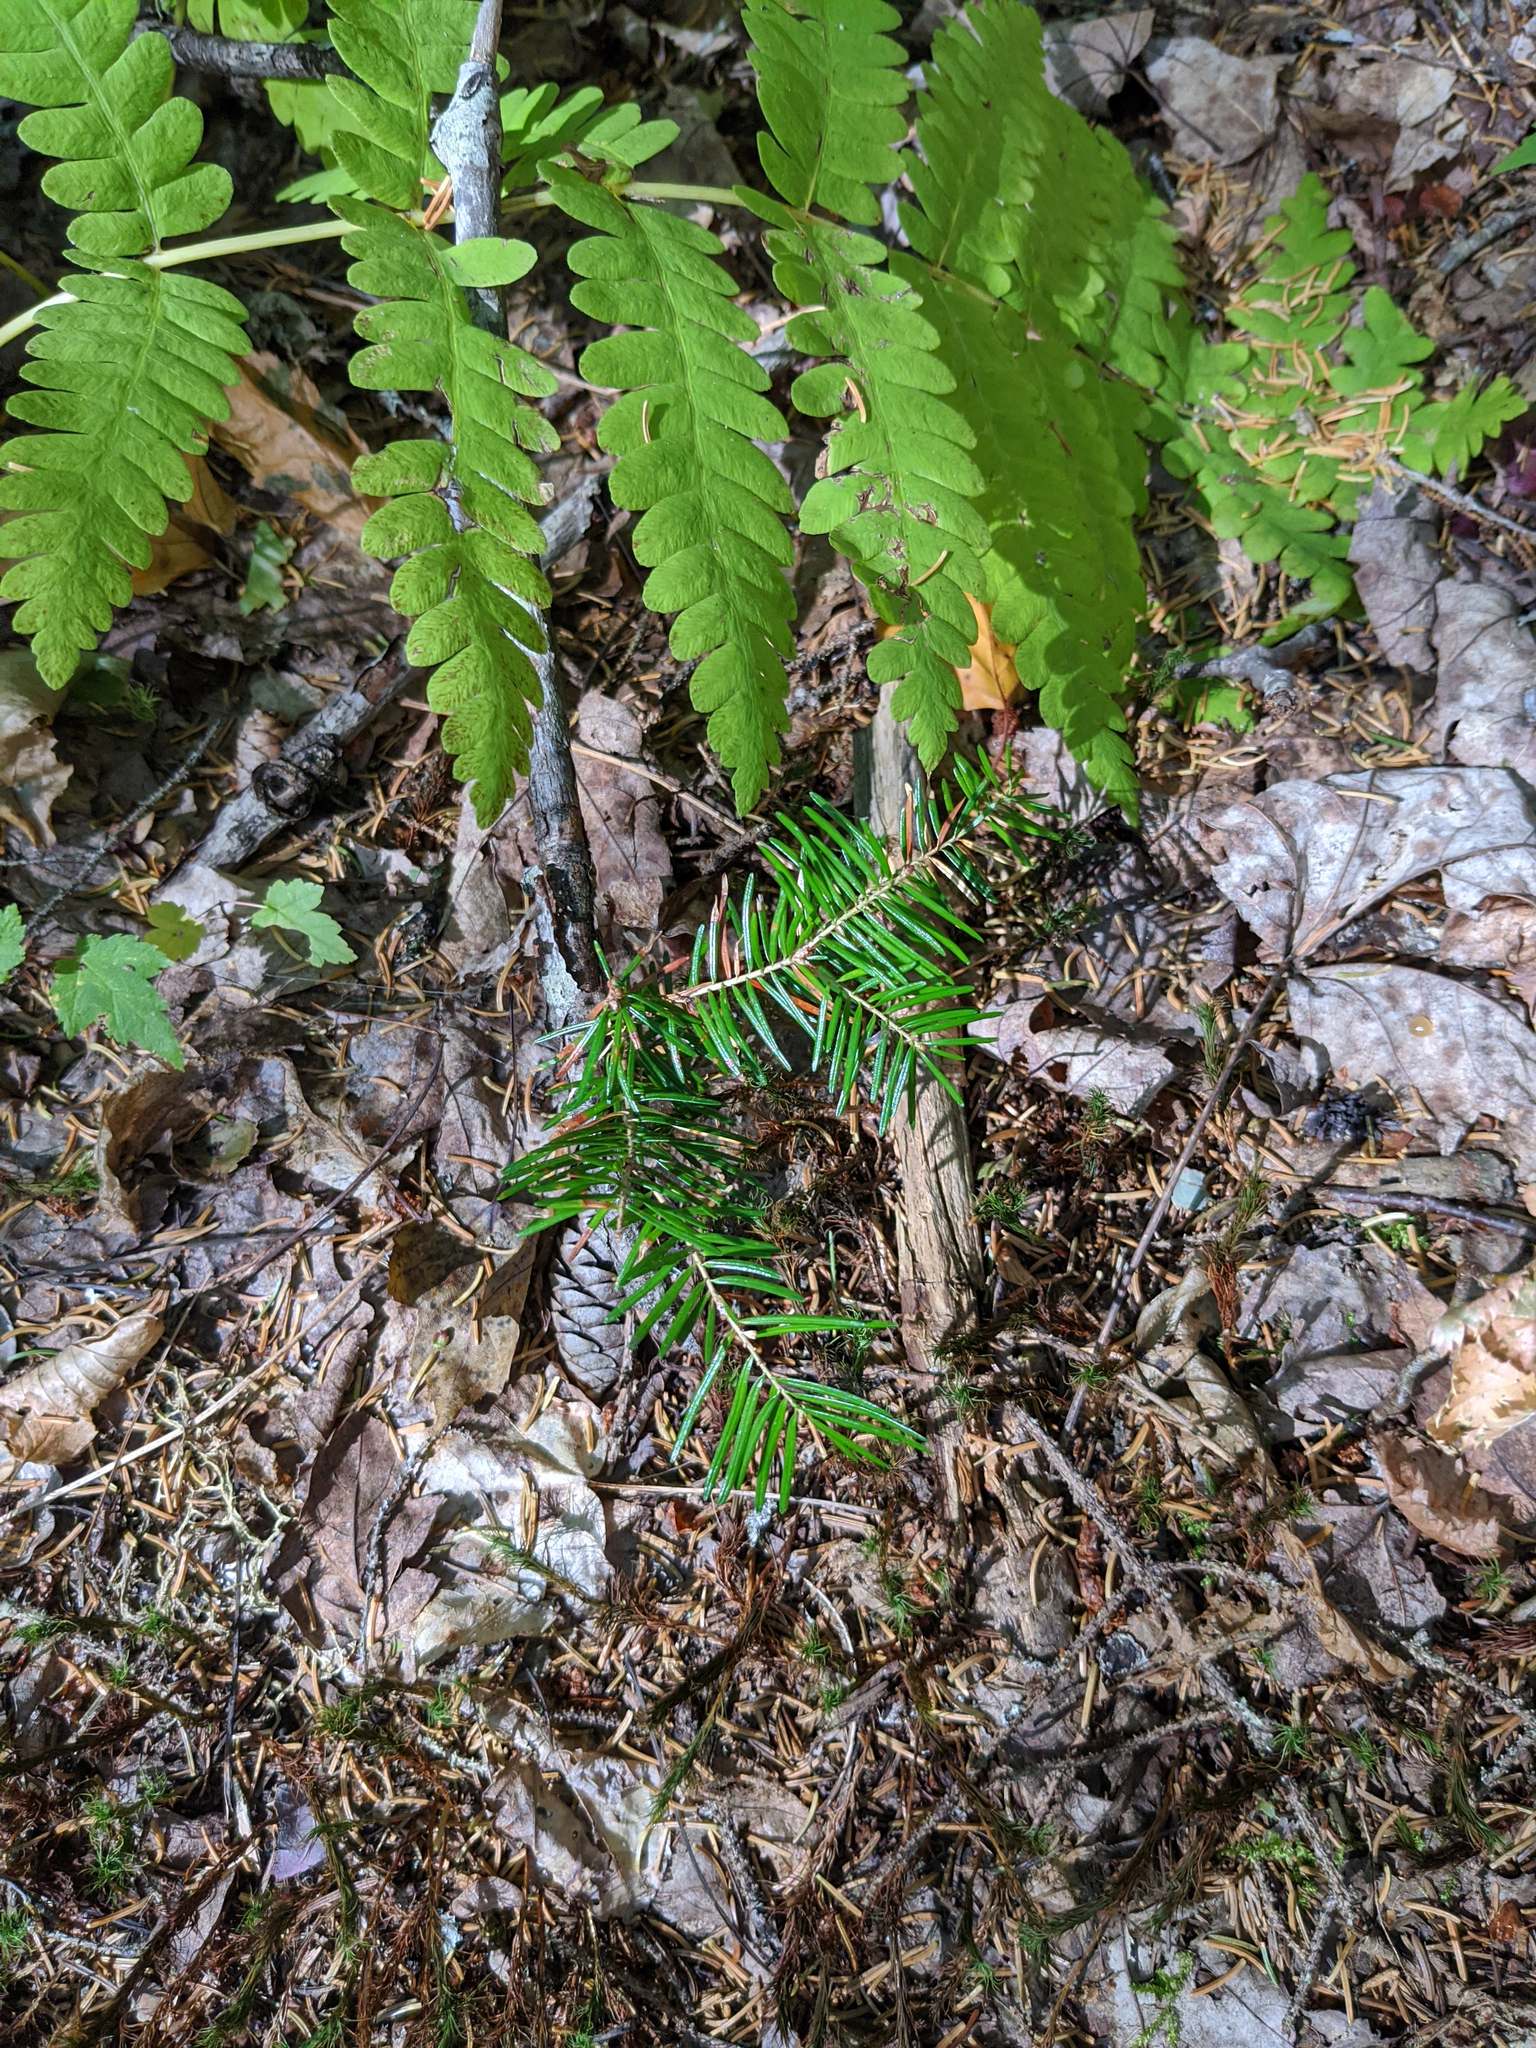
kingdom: Plantae
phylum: Tracheophyta
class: Pinopsida
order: Pinales
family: Pinaceae
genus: Abies
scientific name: Abies balsamea
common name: Balsam fir
